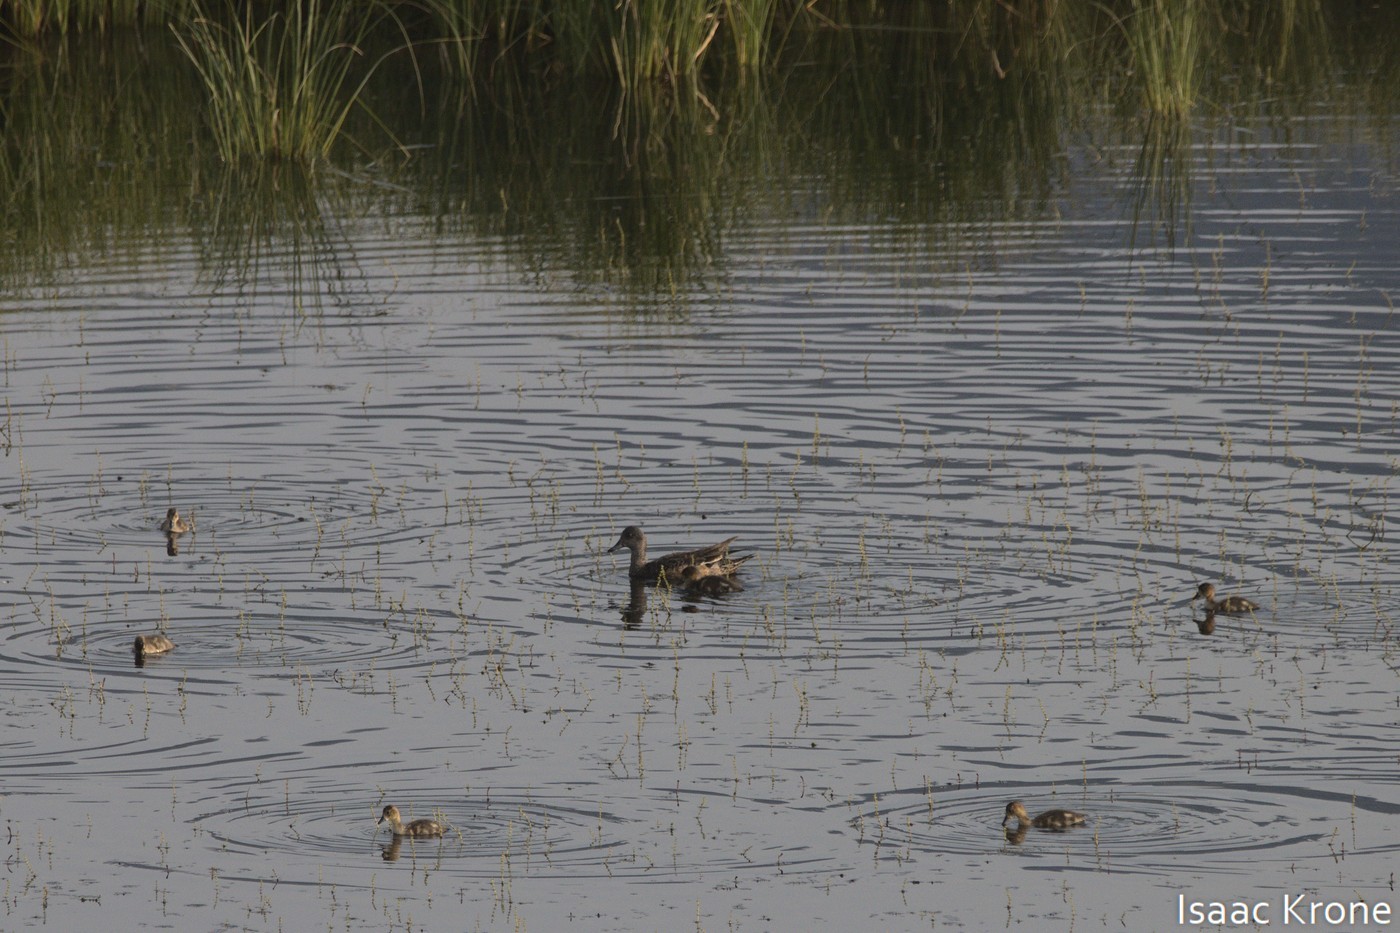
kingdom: Animalia
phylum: Chordata
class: Aves
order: Anseriformes
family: Anatidae
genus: Mareca
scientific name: Mareca americana
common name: American wigeon
